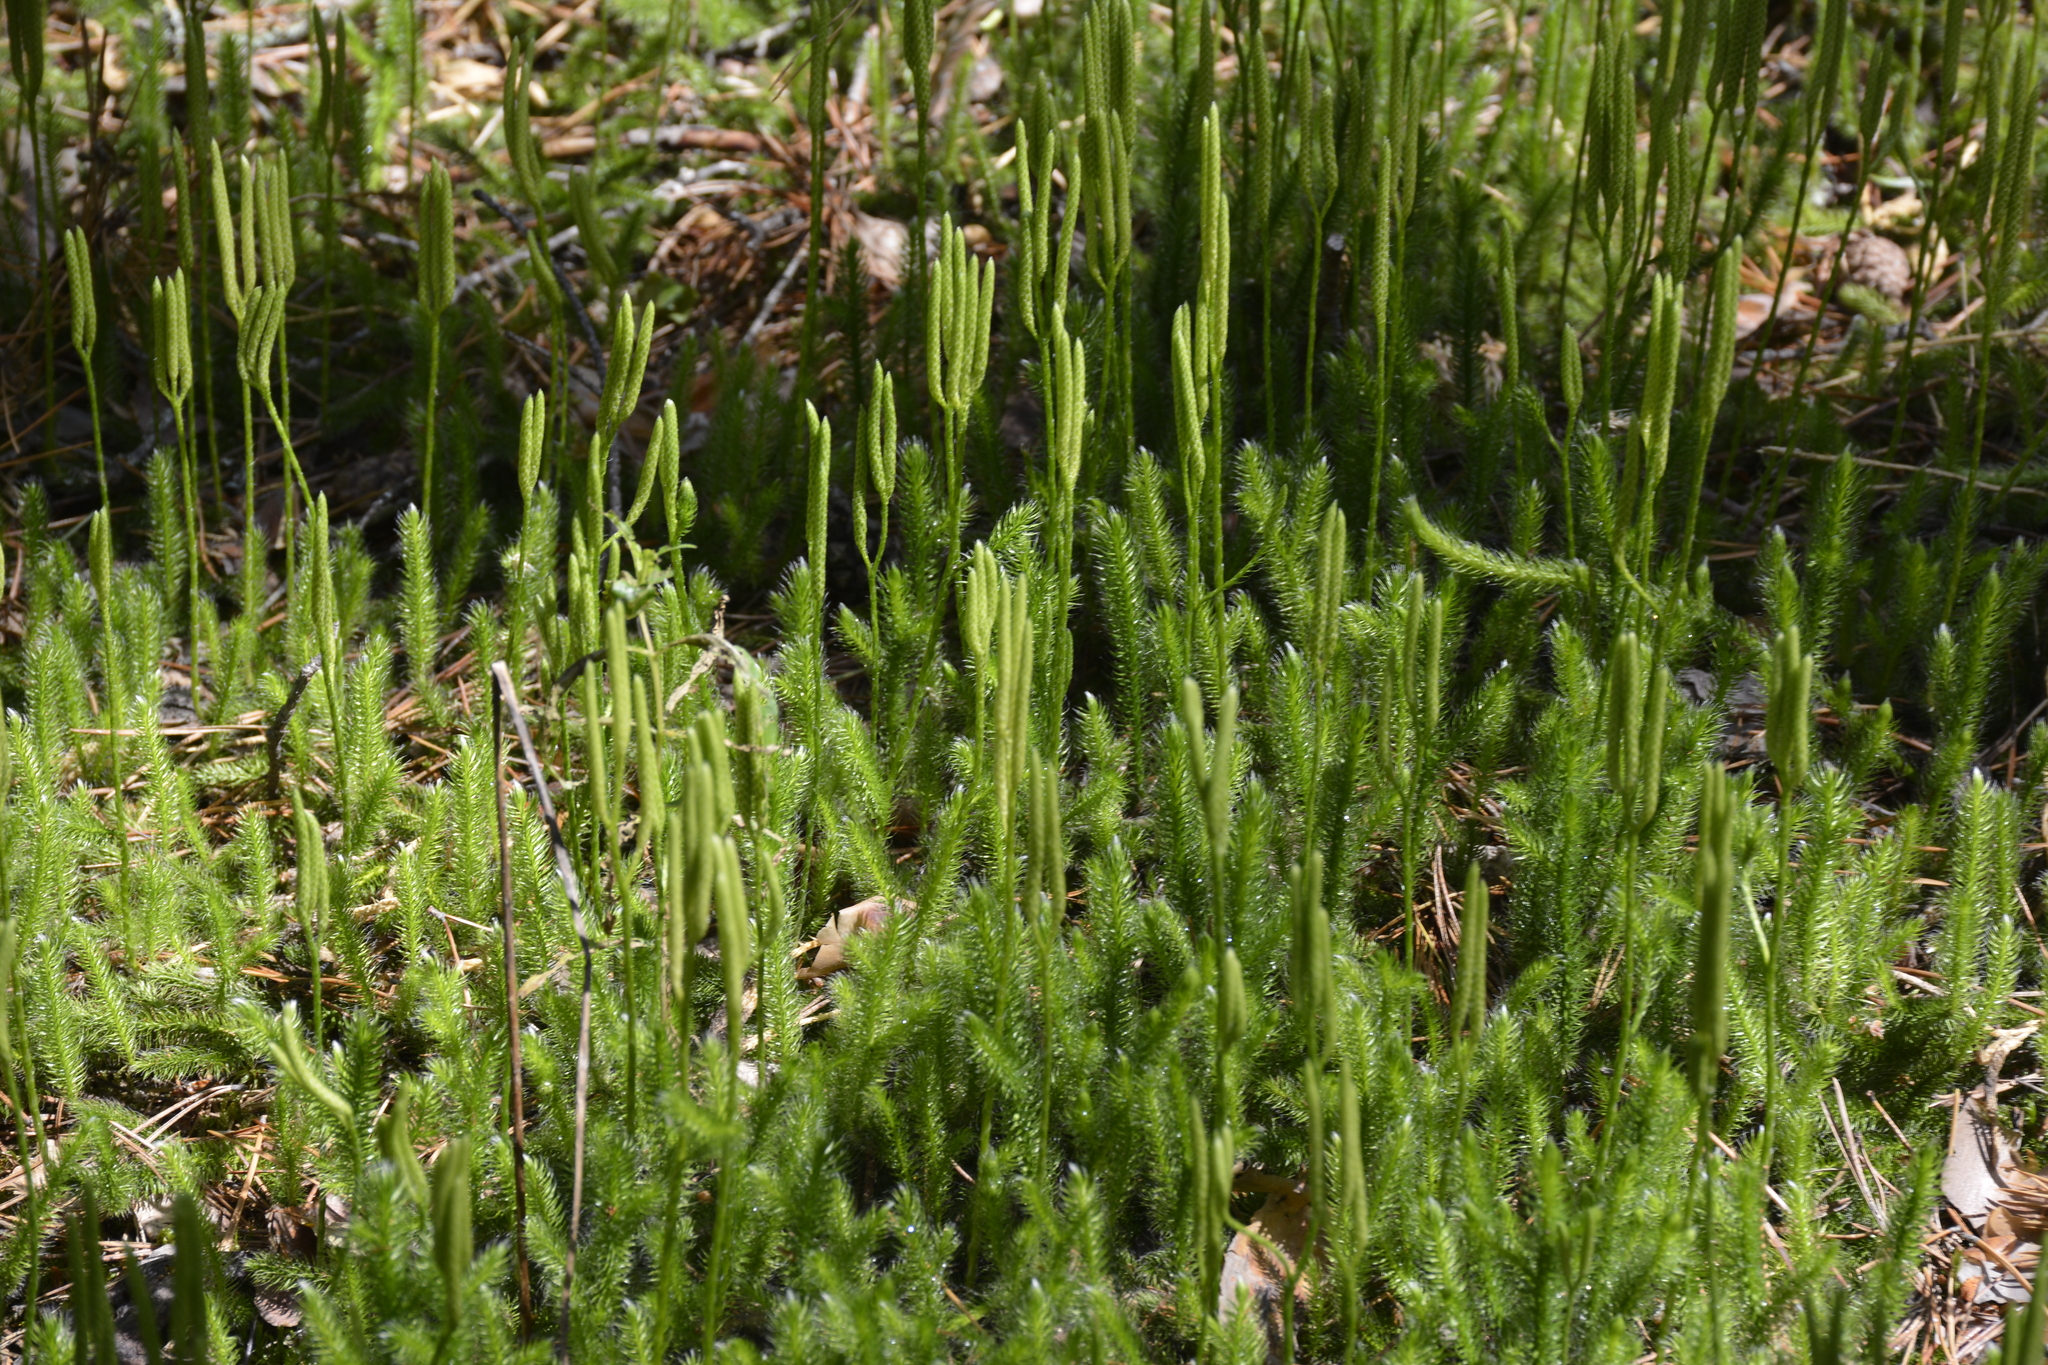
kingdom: Plantae
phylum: Tracheophyta
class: Lycopodiopsida
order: Lycopodiales
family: Lycopodiaceae
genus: Lycopodium
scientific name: Lycopodium clavatum
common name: Stag's-horn clubmoss
